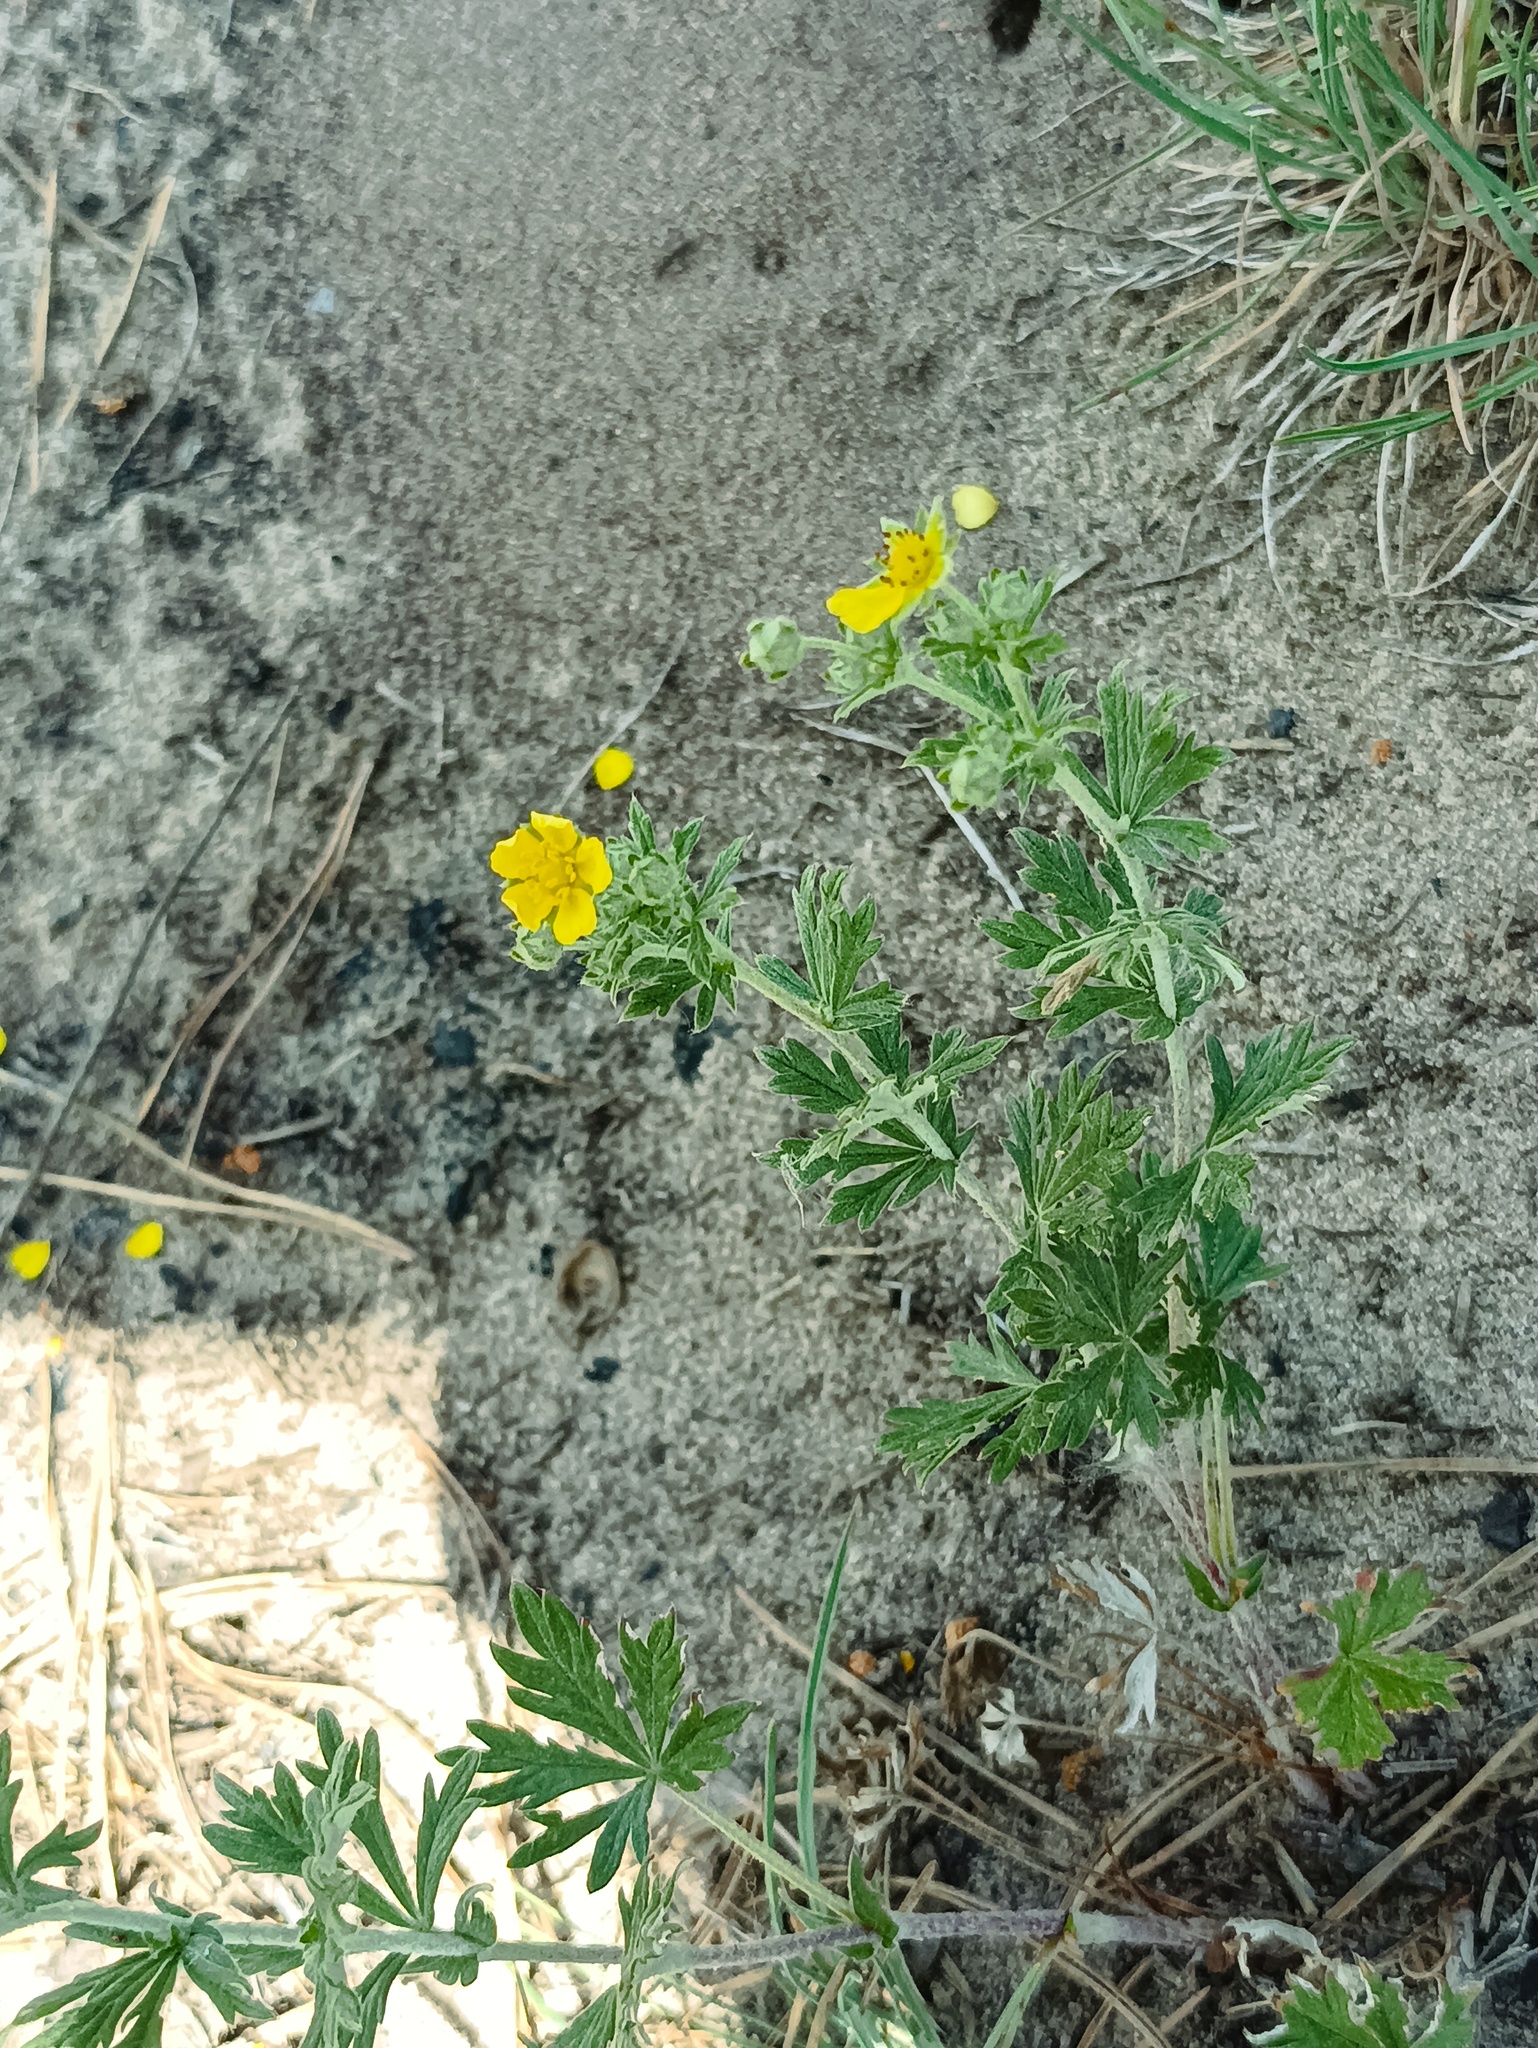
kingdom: Plantae
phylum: Tracheophyta
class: Magnoliopsida
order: Rosales
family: Rosaceae
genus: Potentilla
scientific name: Potentilla argentea
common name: Hoary cinquefoil
